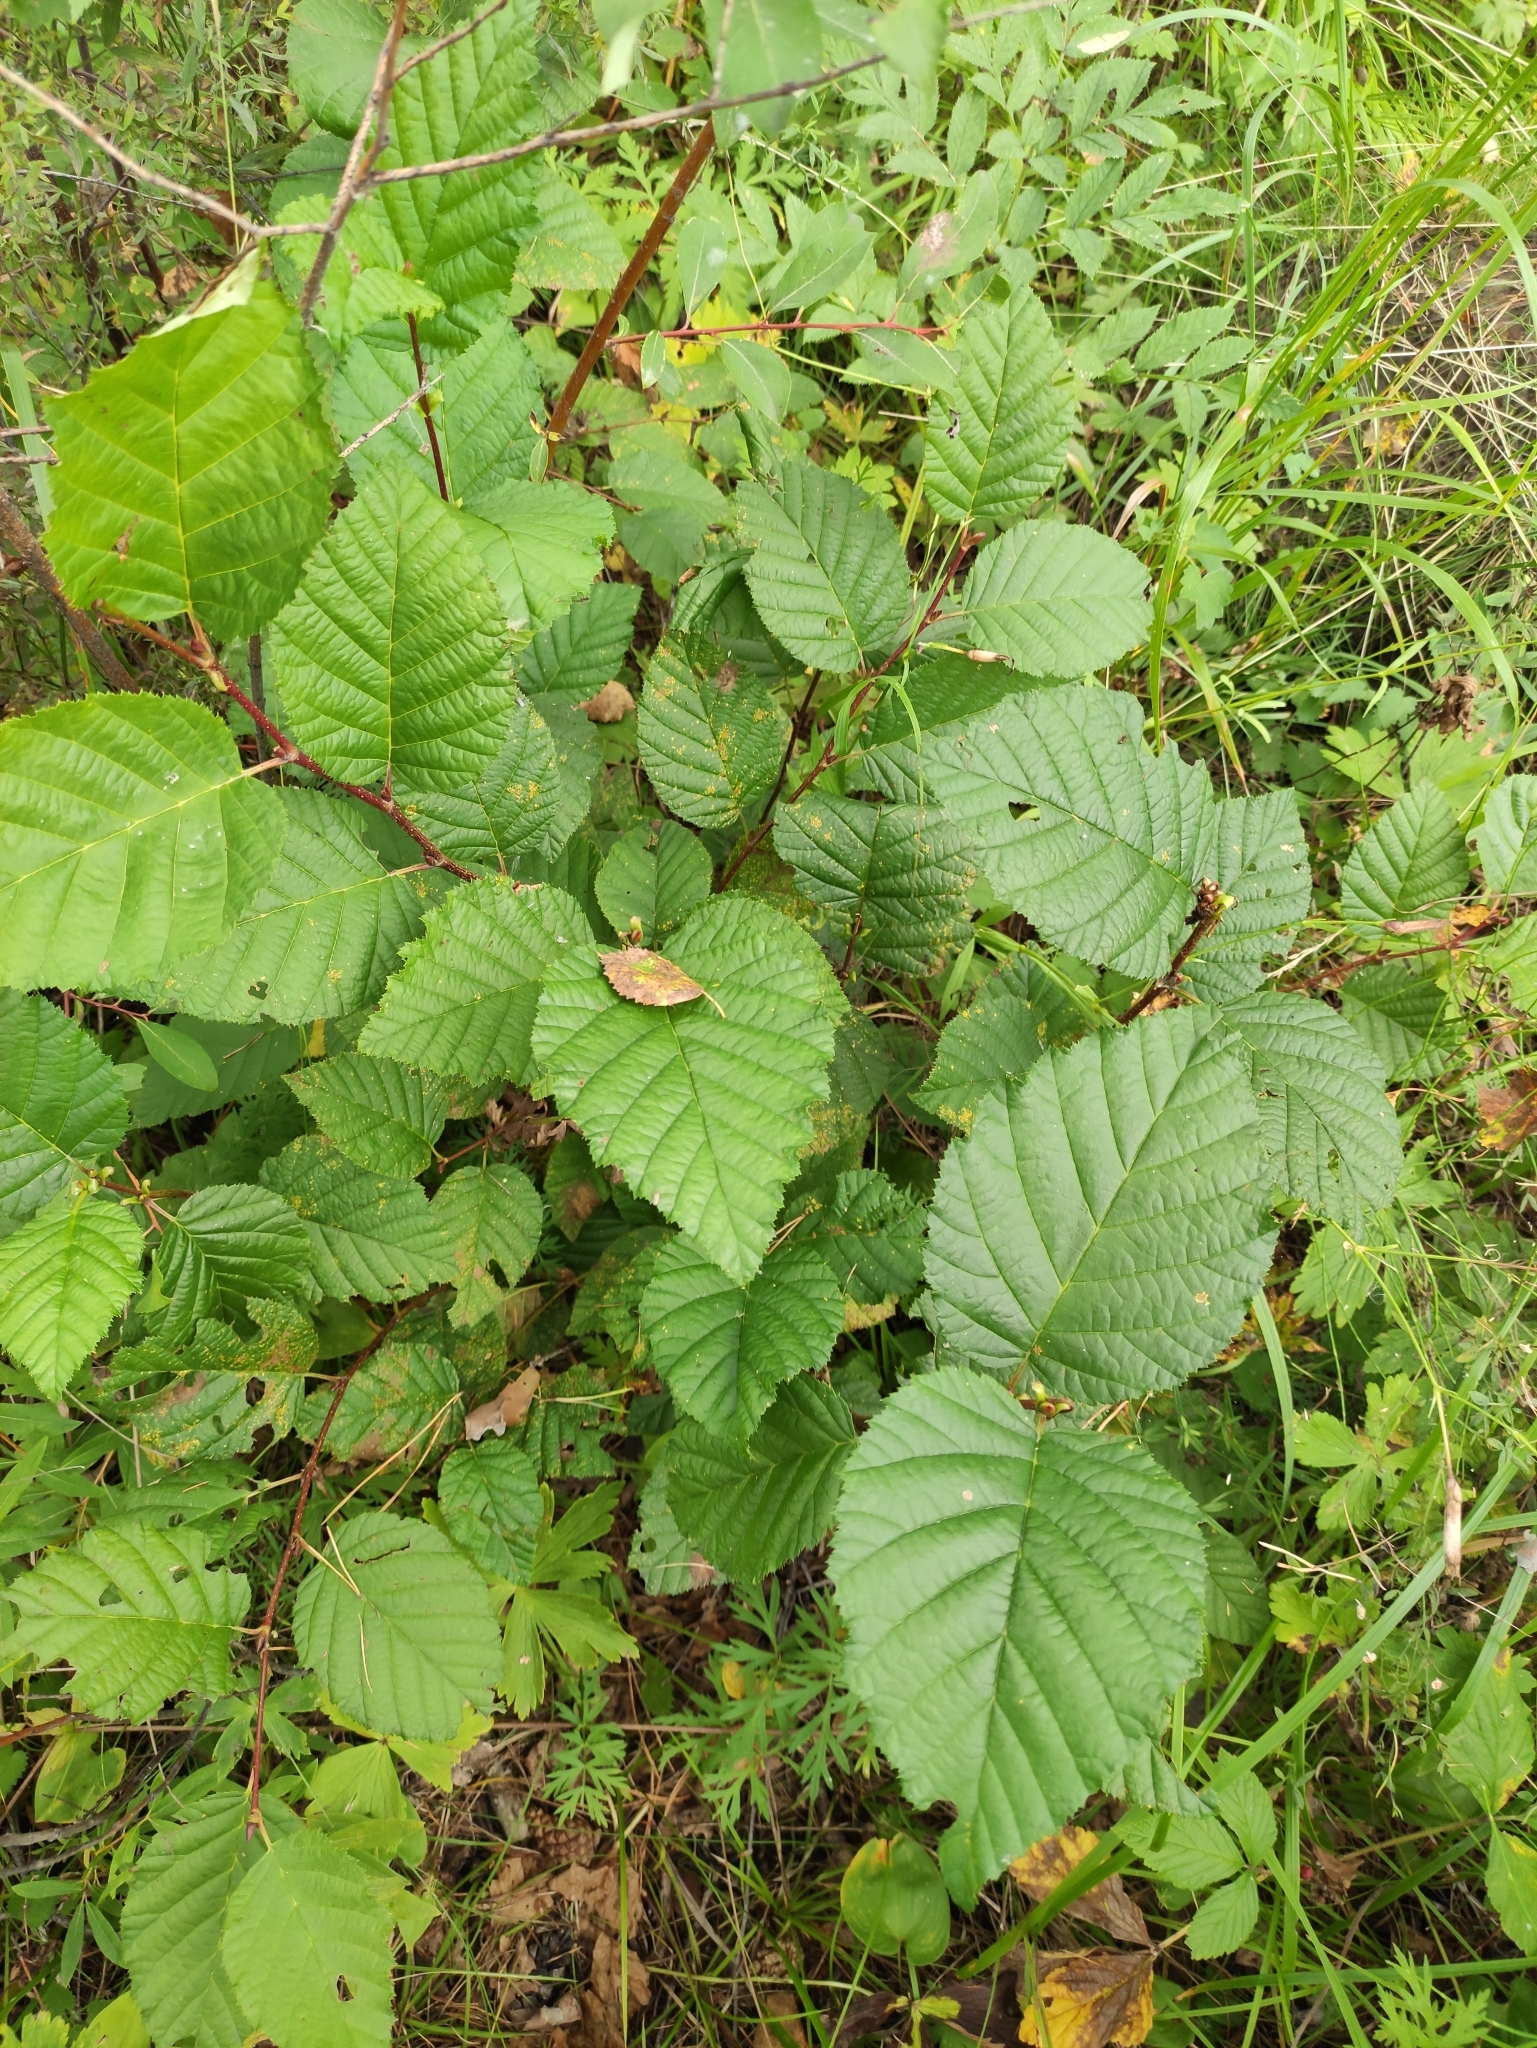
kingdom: Plantae
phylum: Tracheophyta
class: Magnoliopsida
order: Fagales
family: Betulaceae
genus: Alnus
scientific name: Alnus alnobetula
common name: Green alder
